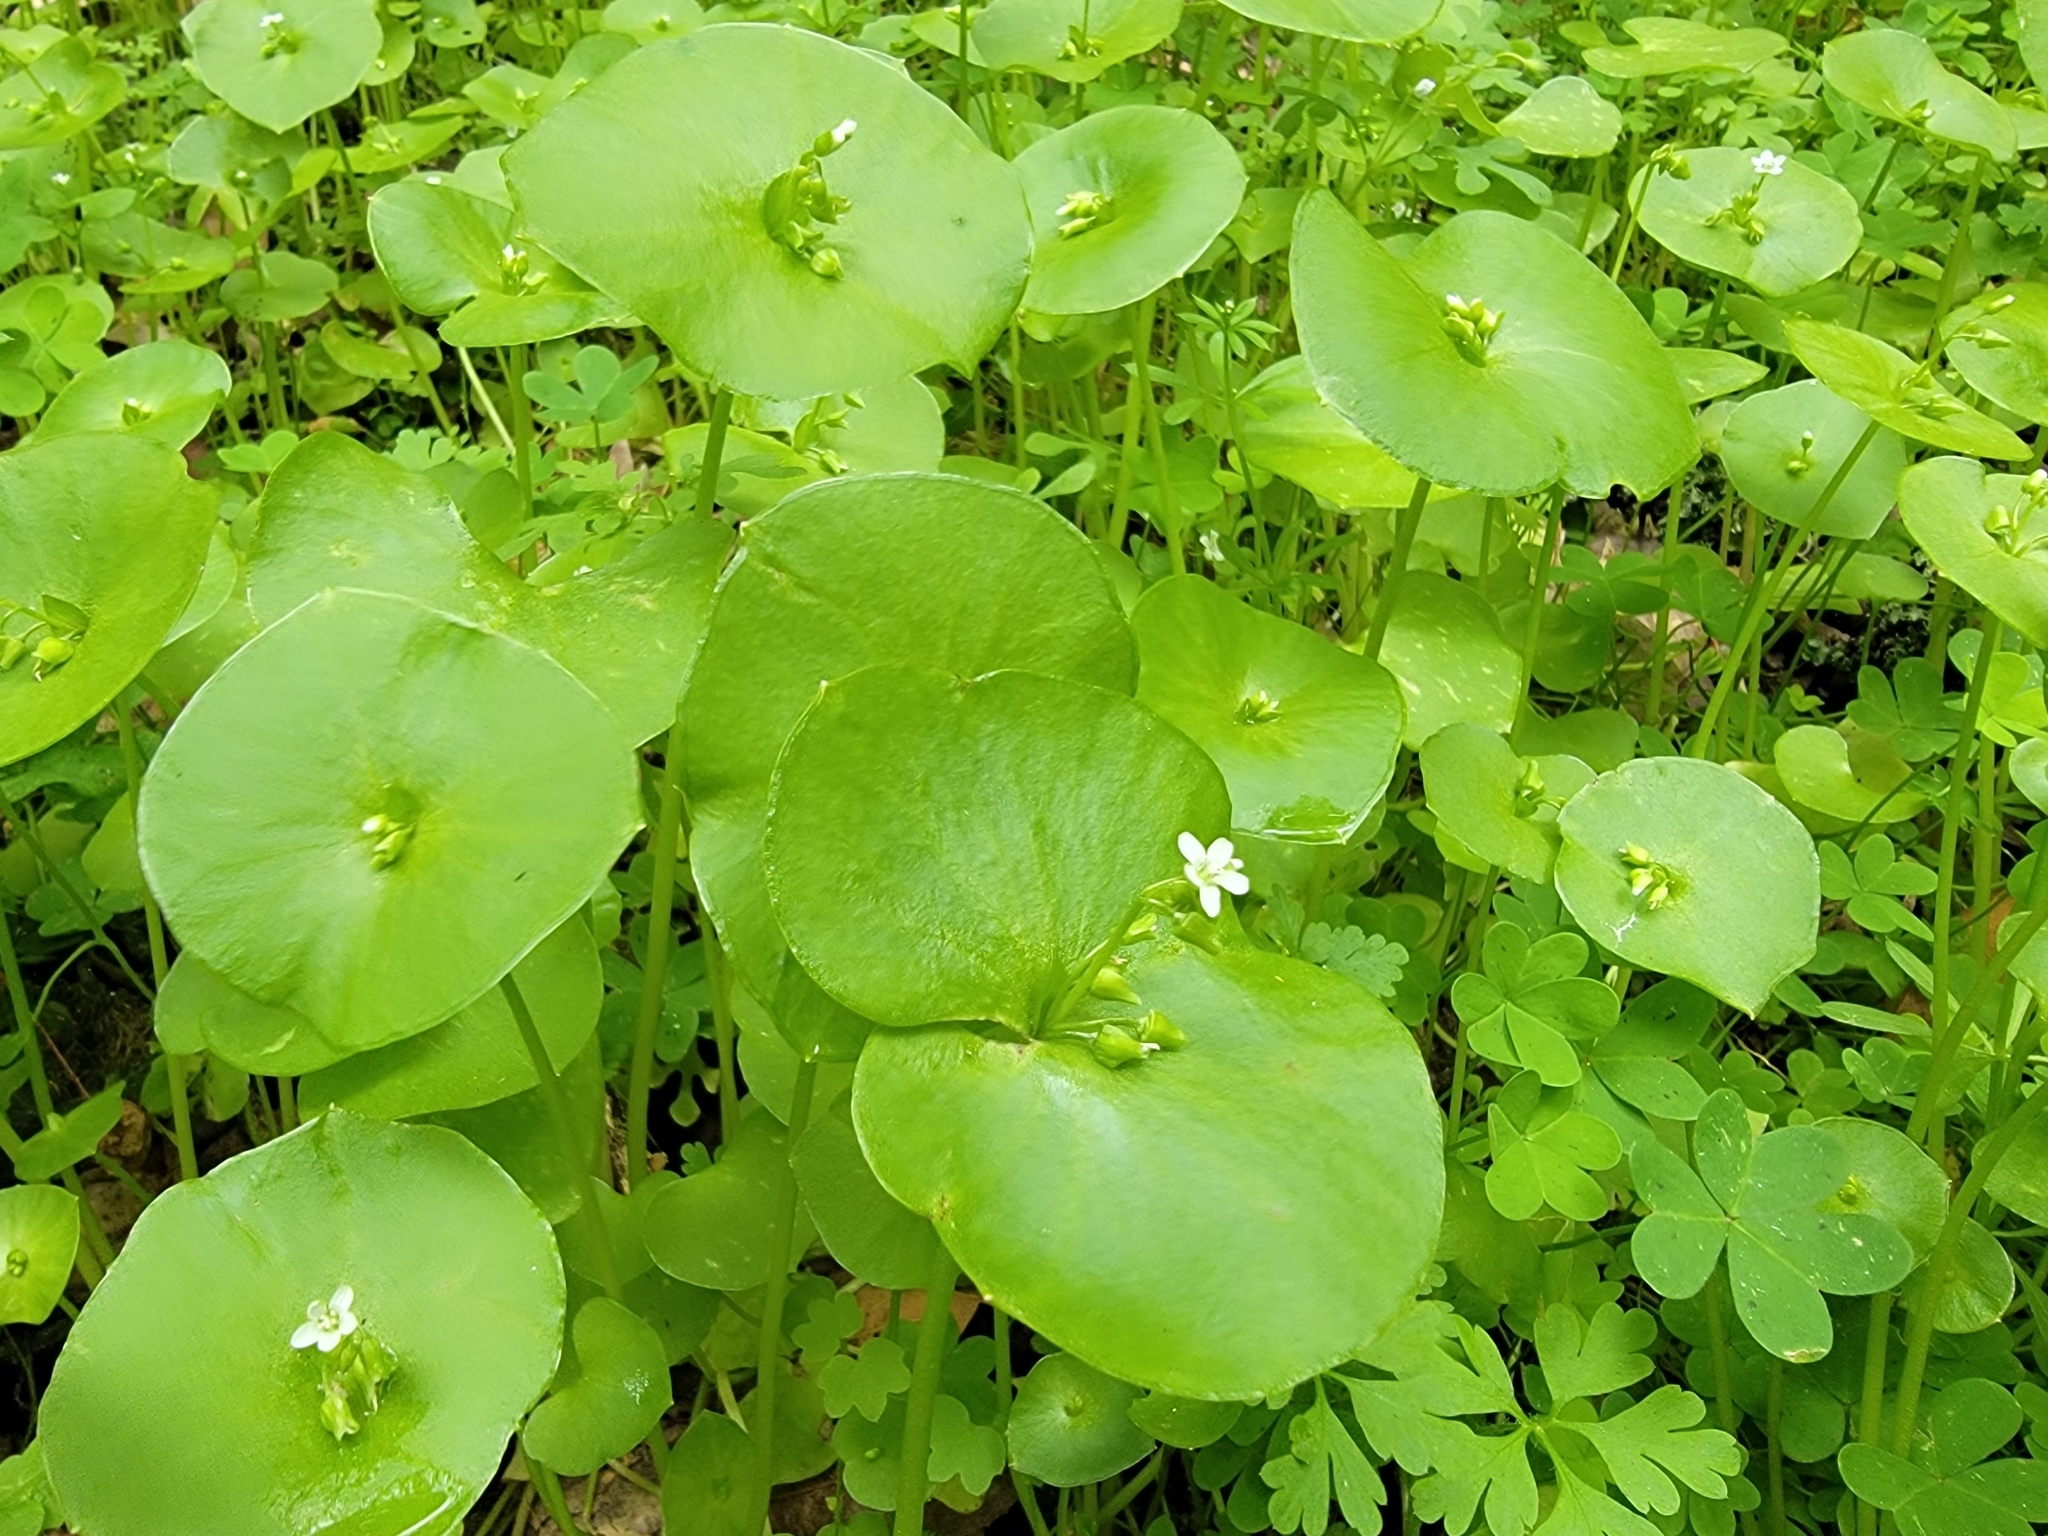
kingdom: Plantae
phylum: Tracheophyta
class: Magnoliopsida
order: Caryophyllales
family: Montiaceae
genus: Claytonia
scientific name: Claytonia perfoliata
